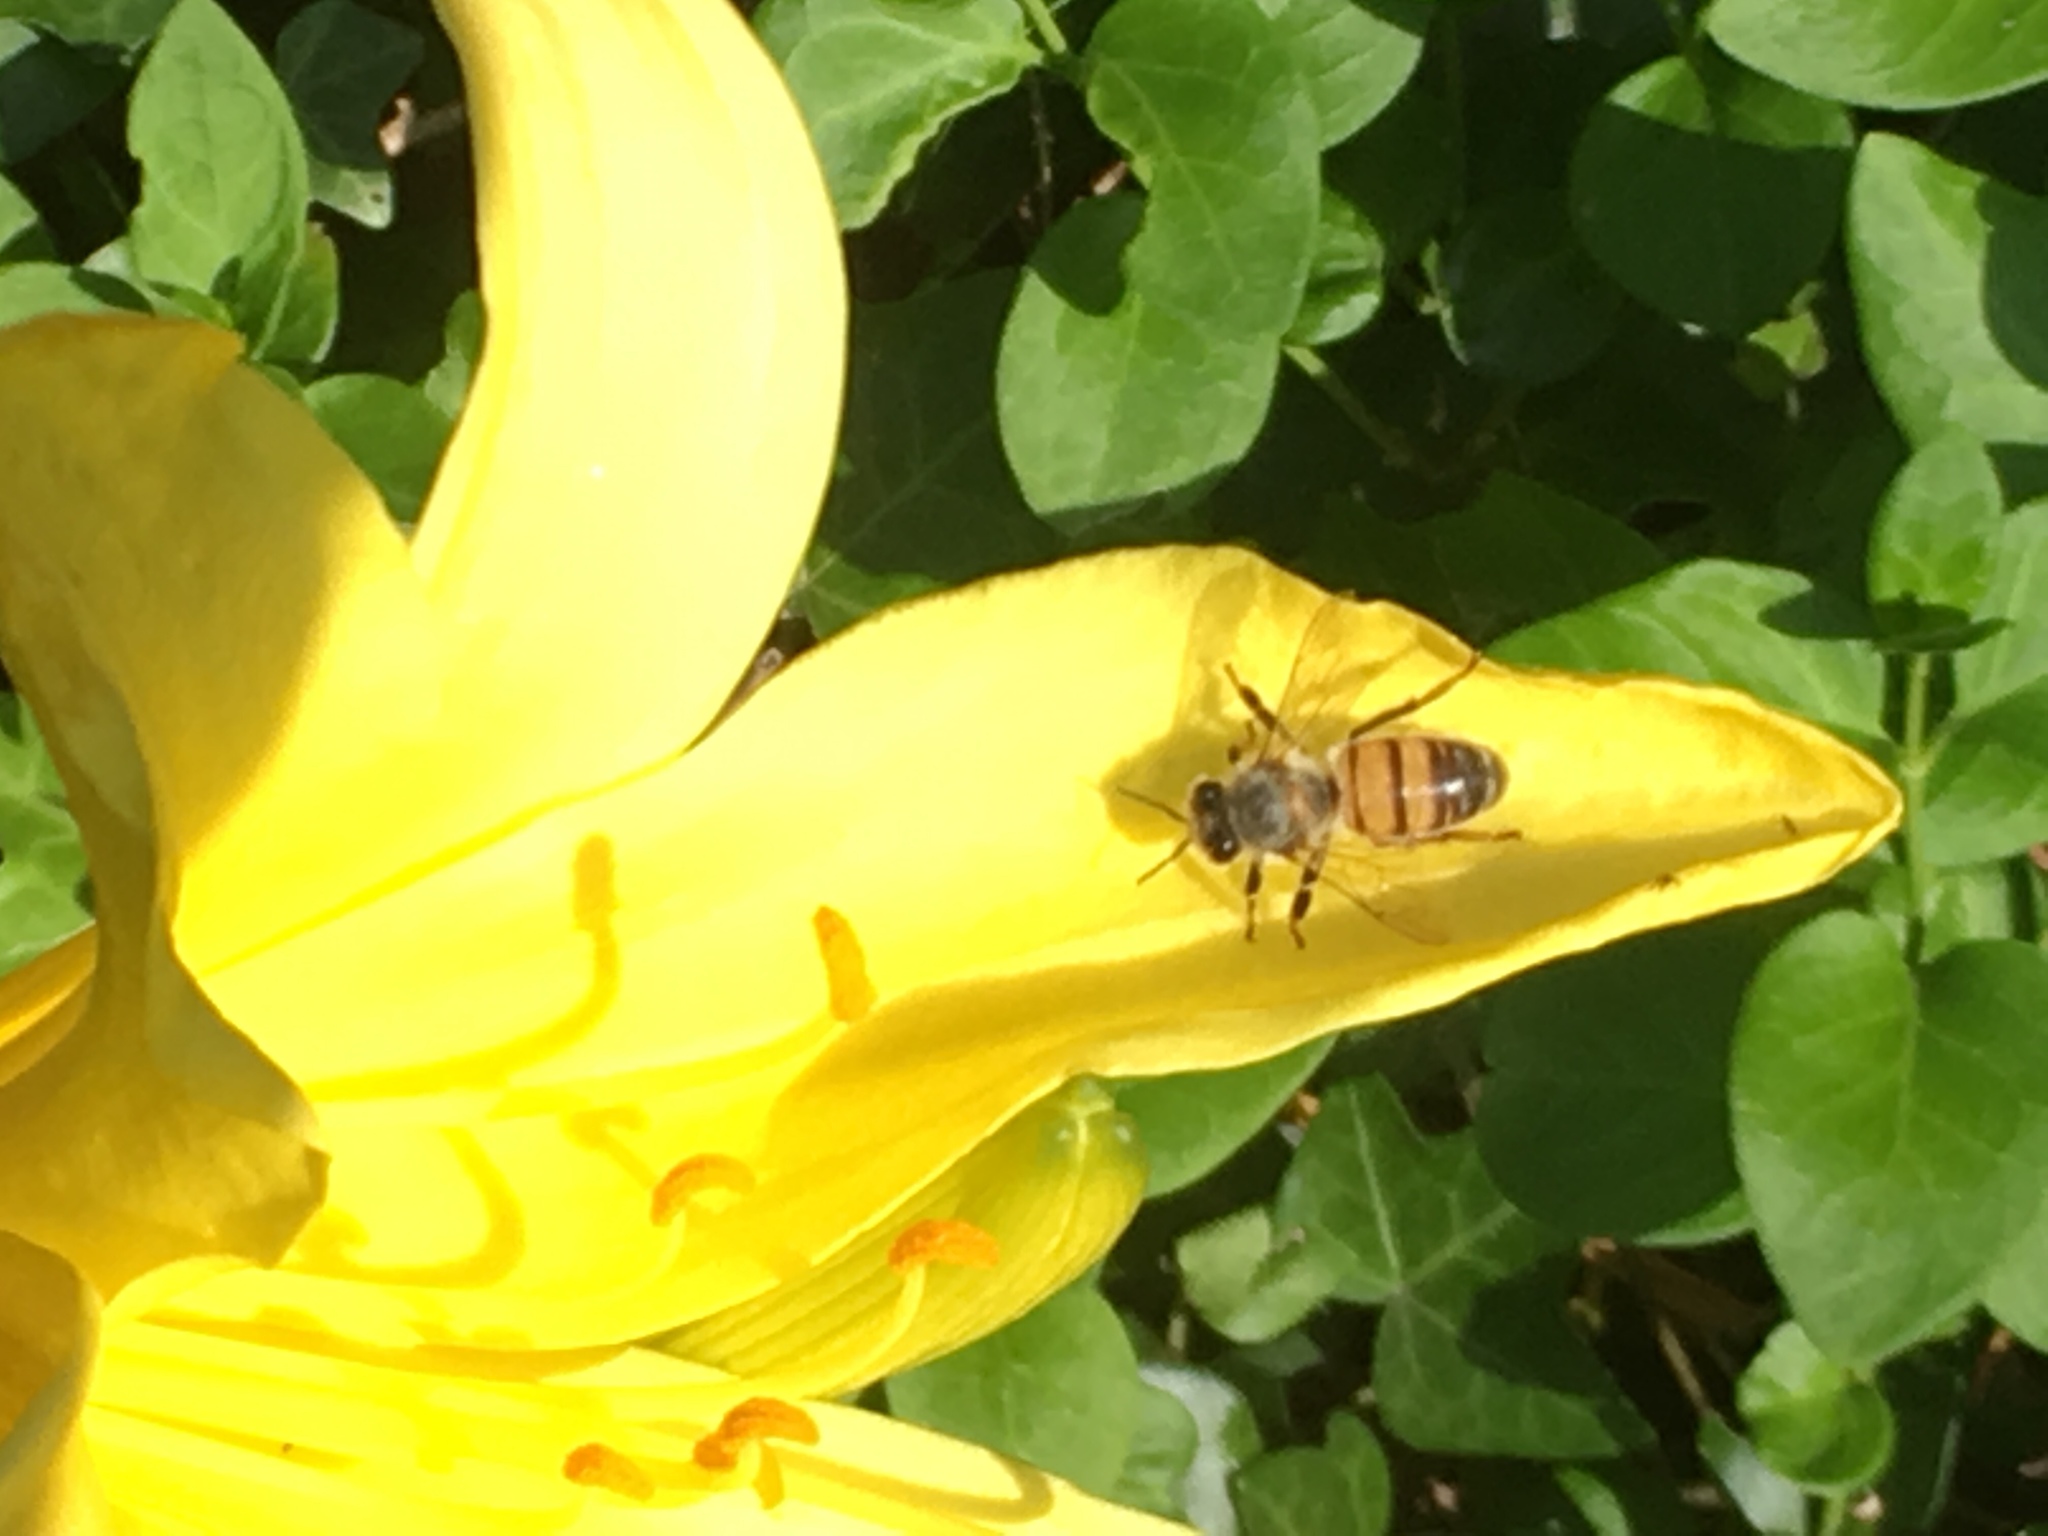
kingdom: Animalia
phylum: Arthropoda
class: Insecta
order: Hymenoptera
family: Apidae
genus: Apis
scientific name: Apis mellifera
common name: Honey bee
